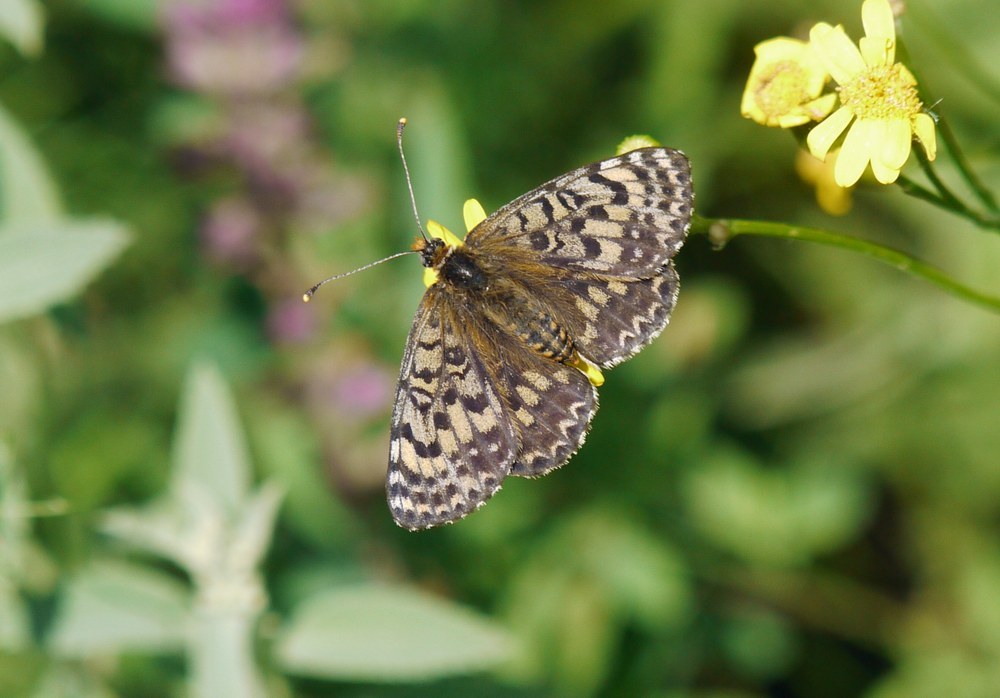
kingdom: Animalia
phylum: Arthropoda
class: Insecta
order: Lepidoptera
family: Nymphalidae
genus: Melitaea
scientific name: Melitaea didyma
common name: Spotted fritillary
